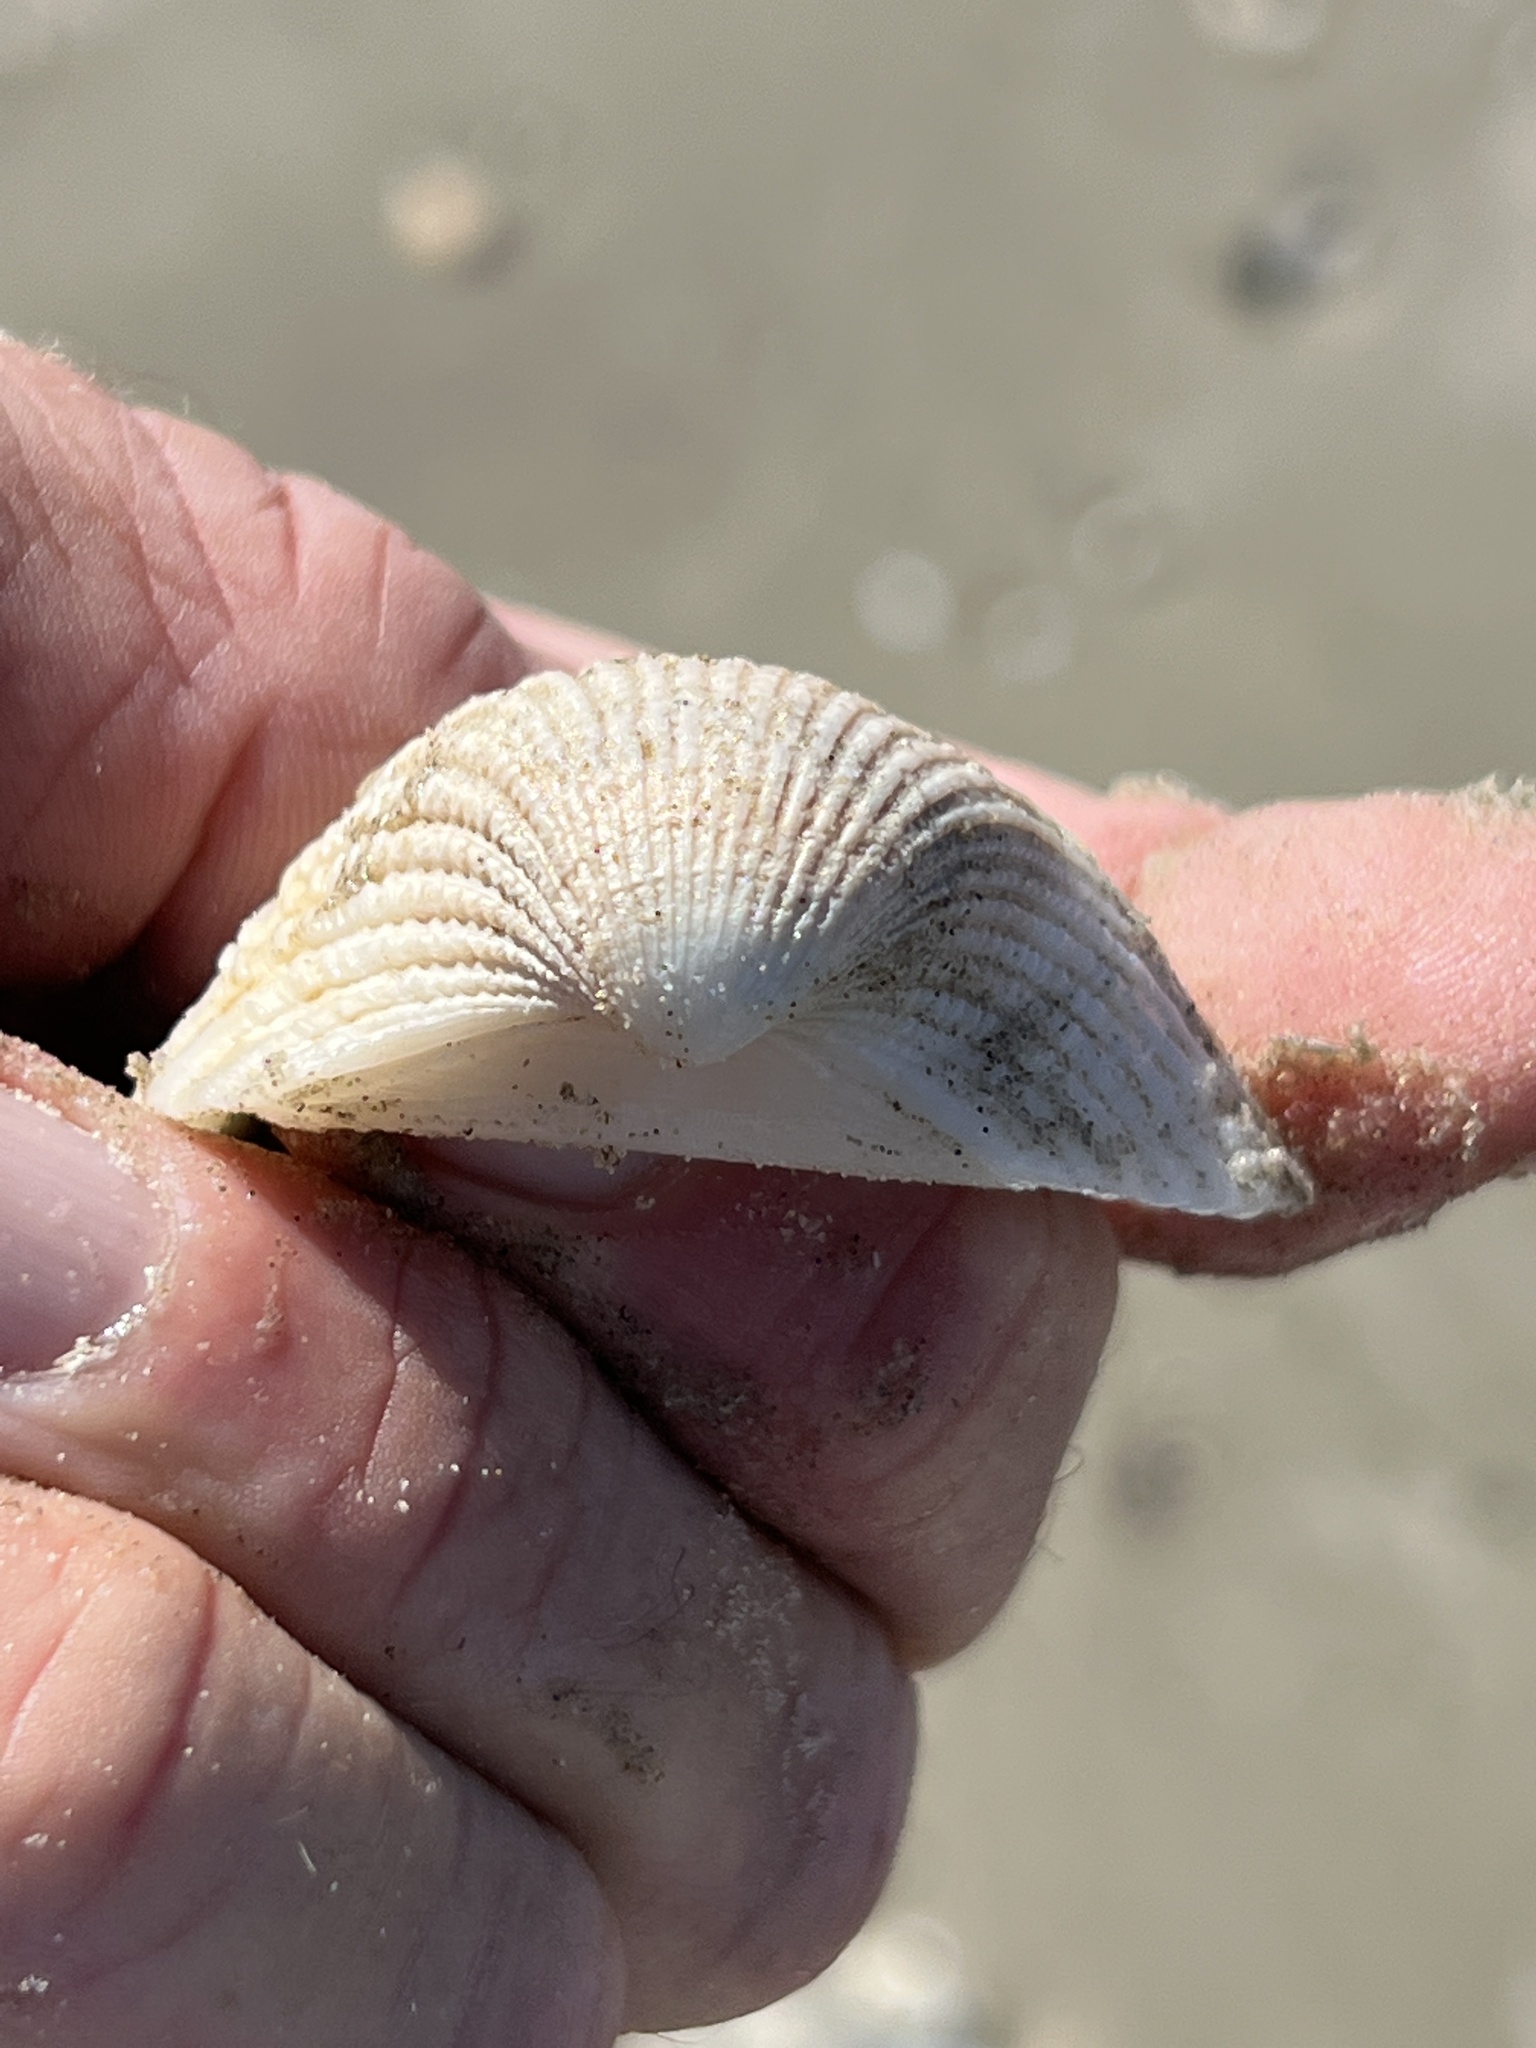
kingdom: Animalia
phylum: Mollusca
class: Bivalvia
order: Arcida
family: Arcidae
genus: Anadara
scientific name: Anadara brasiliana
